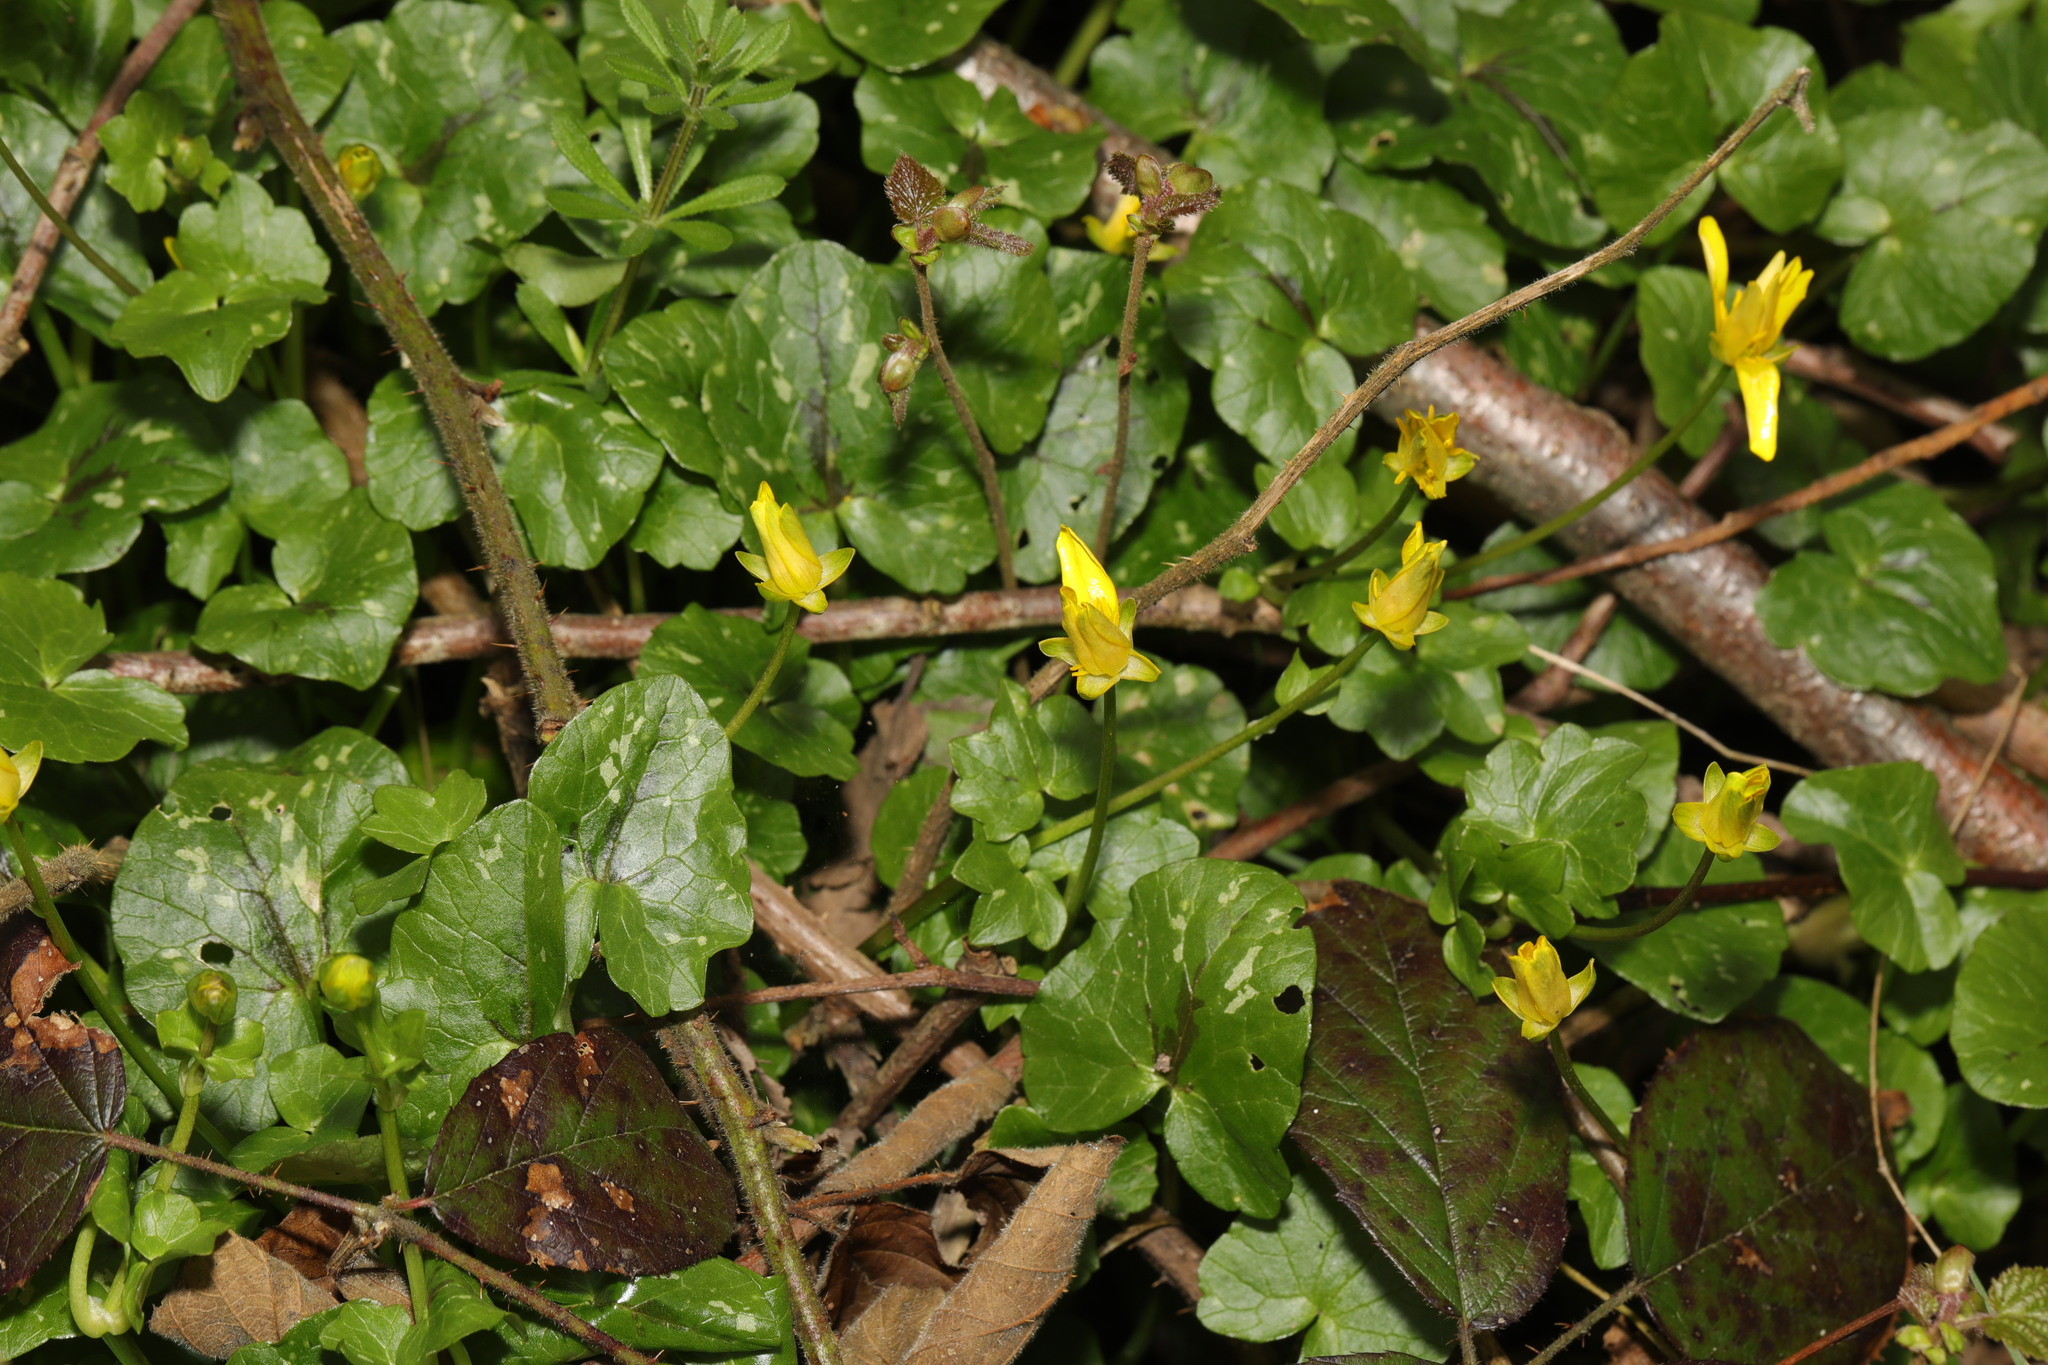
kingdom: Plantae
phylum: Tracheophyta
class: Magnoliopsida
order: Ranunculales
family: Ranunculaceae
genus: Ficaria
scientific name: Ficaria verna
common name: Lesser celandine
